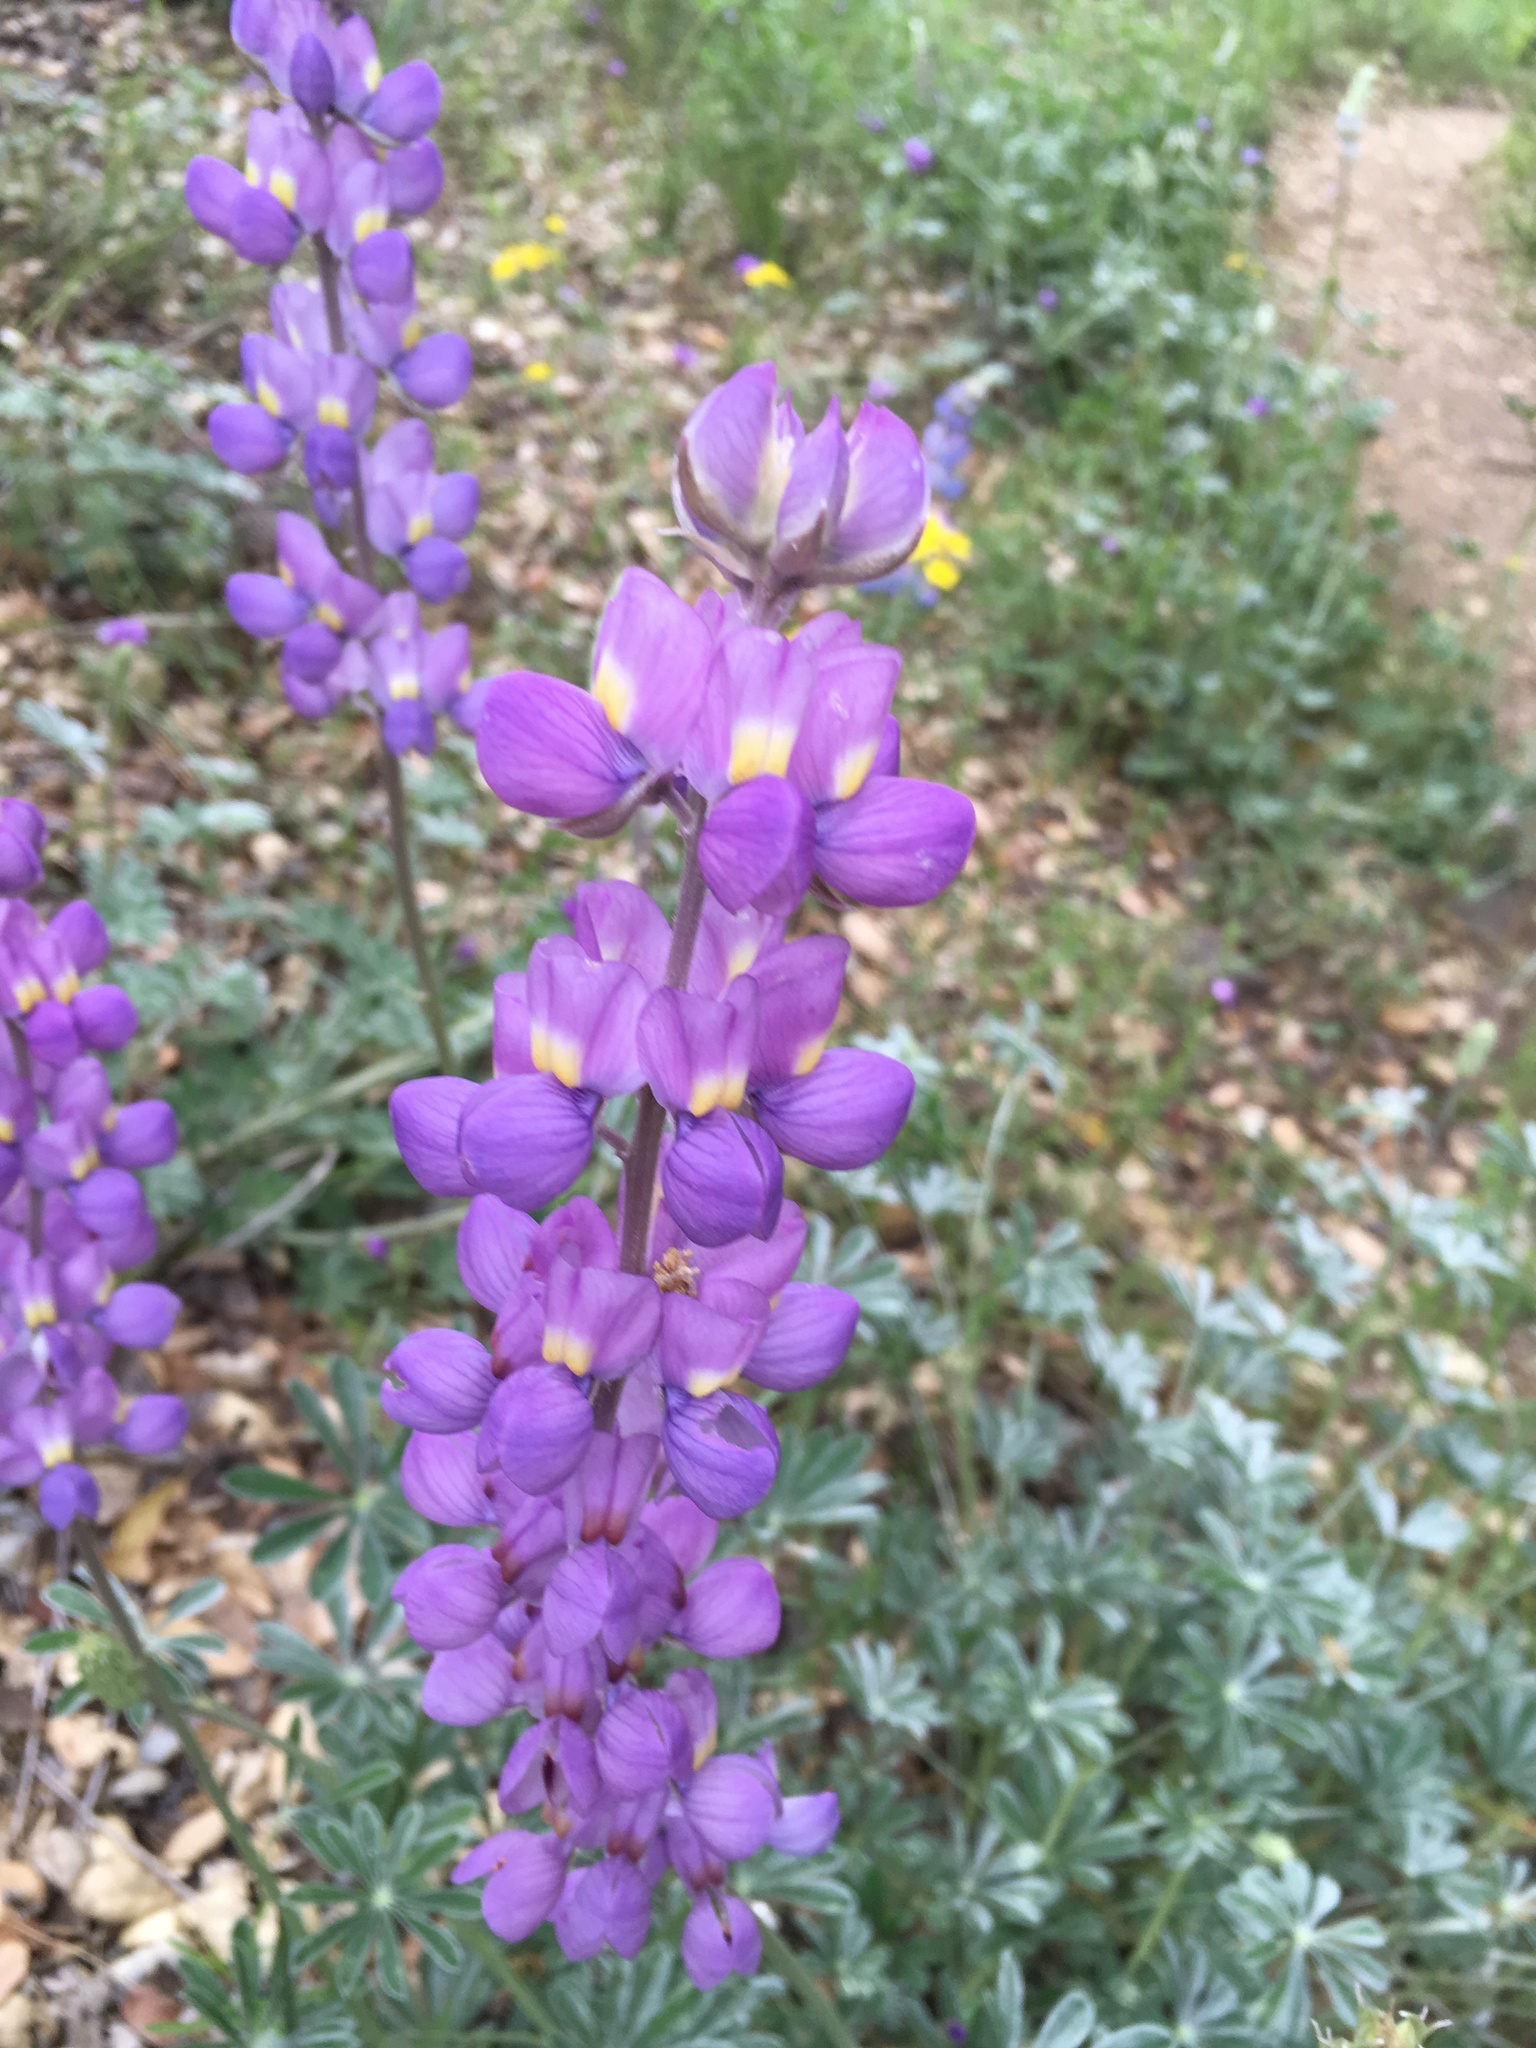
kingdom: Plantae
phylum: Tracheophyta
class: Magnoliopsida
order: Fabales
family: Fabaceae
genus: Lupinus
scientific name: Lupinus excubitus
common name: Grape soda lupine
